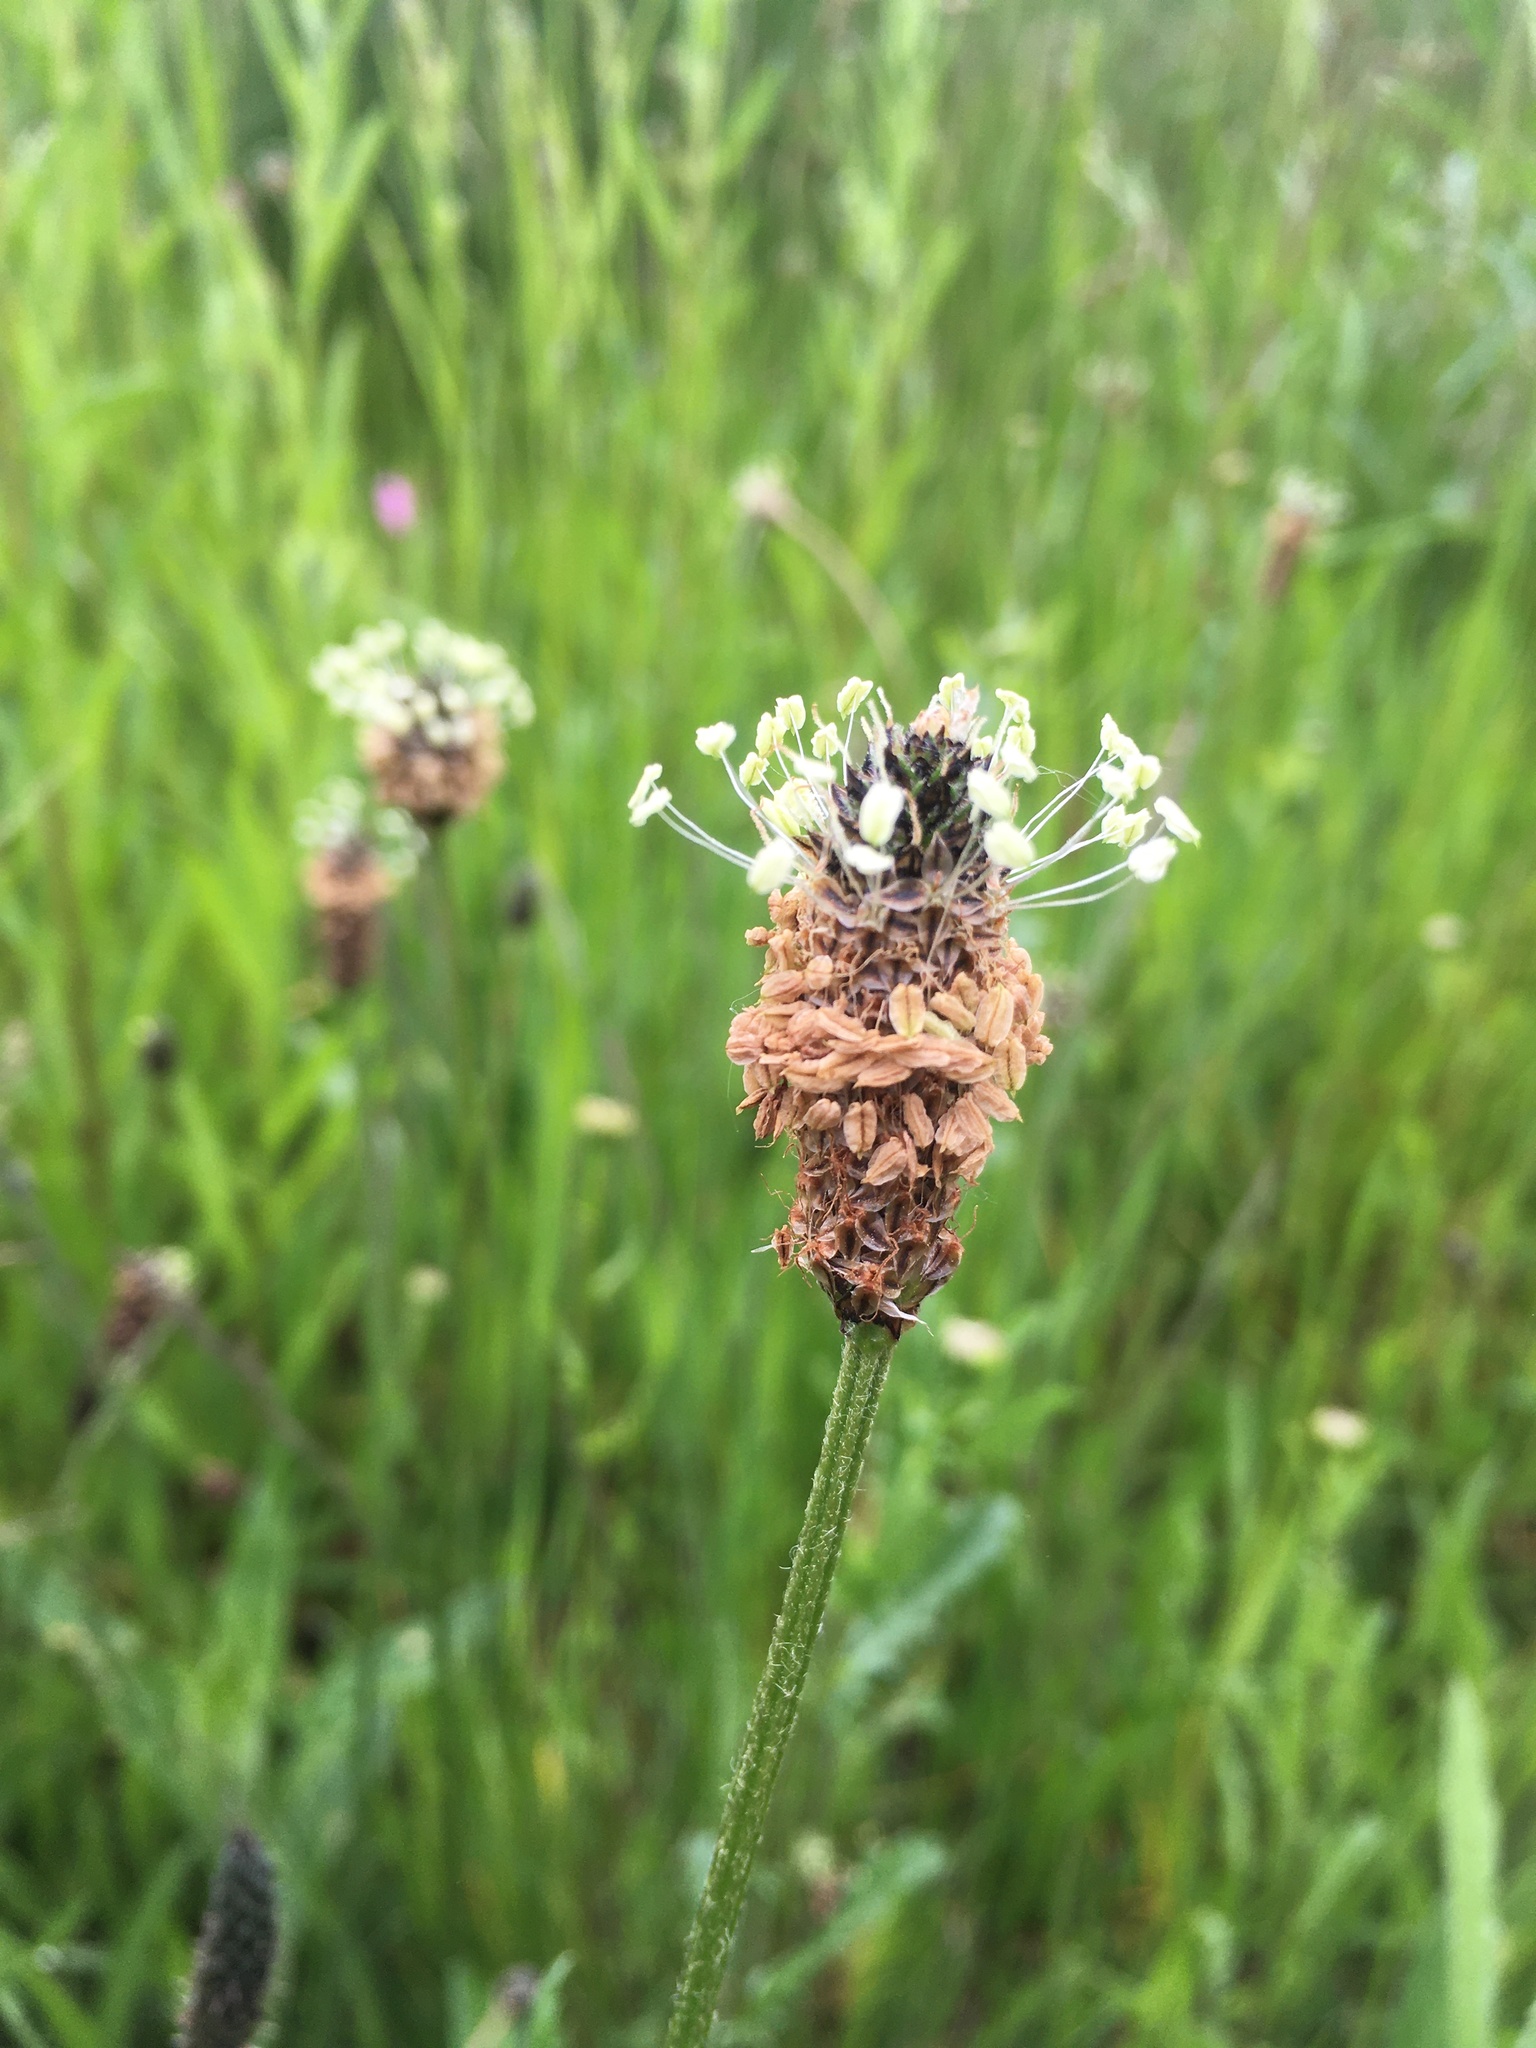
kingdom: Plantae
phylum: Tracheophyta
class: Magnoliopsida
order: Lamiales
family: Plantaginaceae
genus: Plantago
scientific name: Plantago lanceolata
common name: Ribwort plantain
